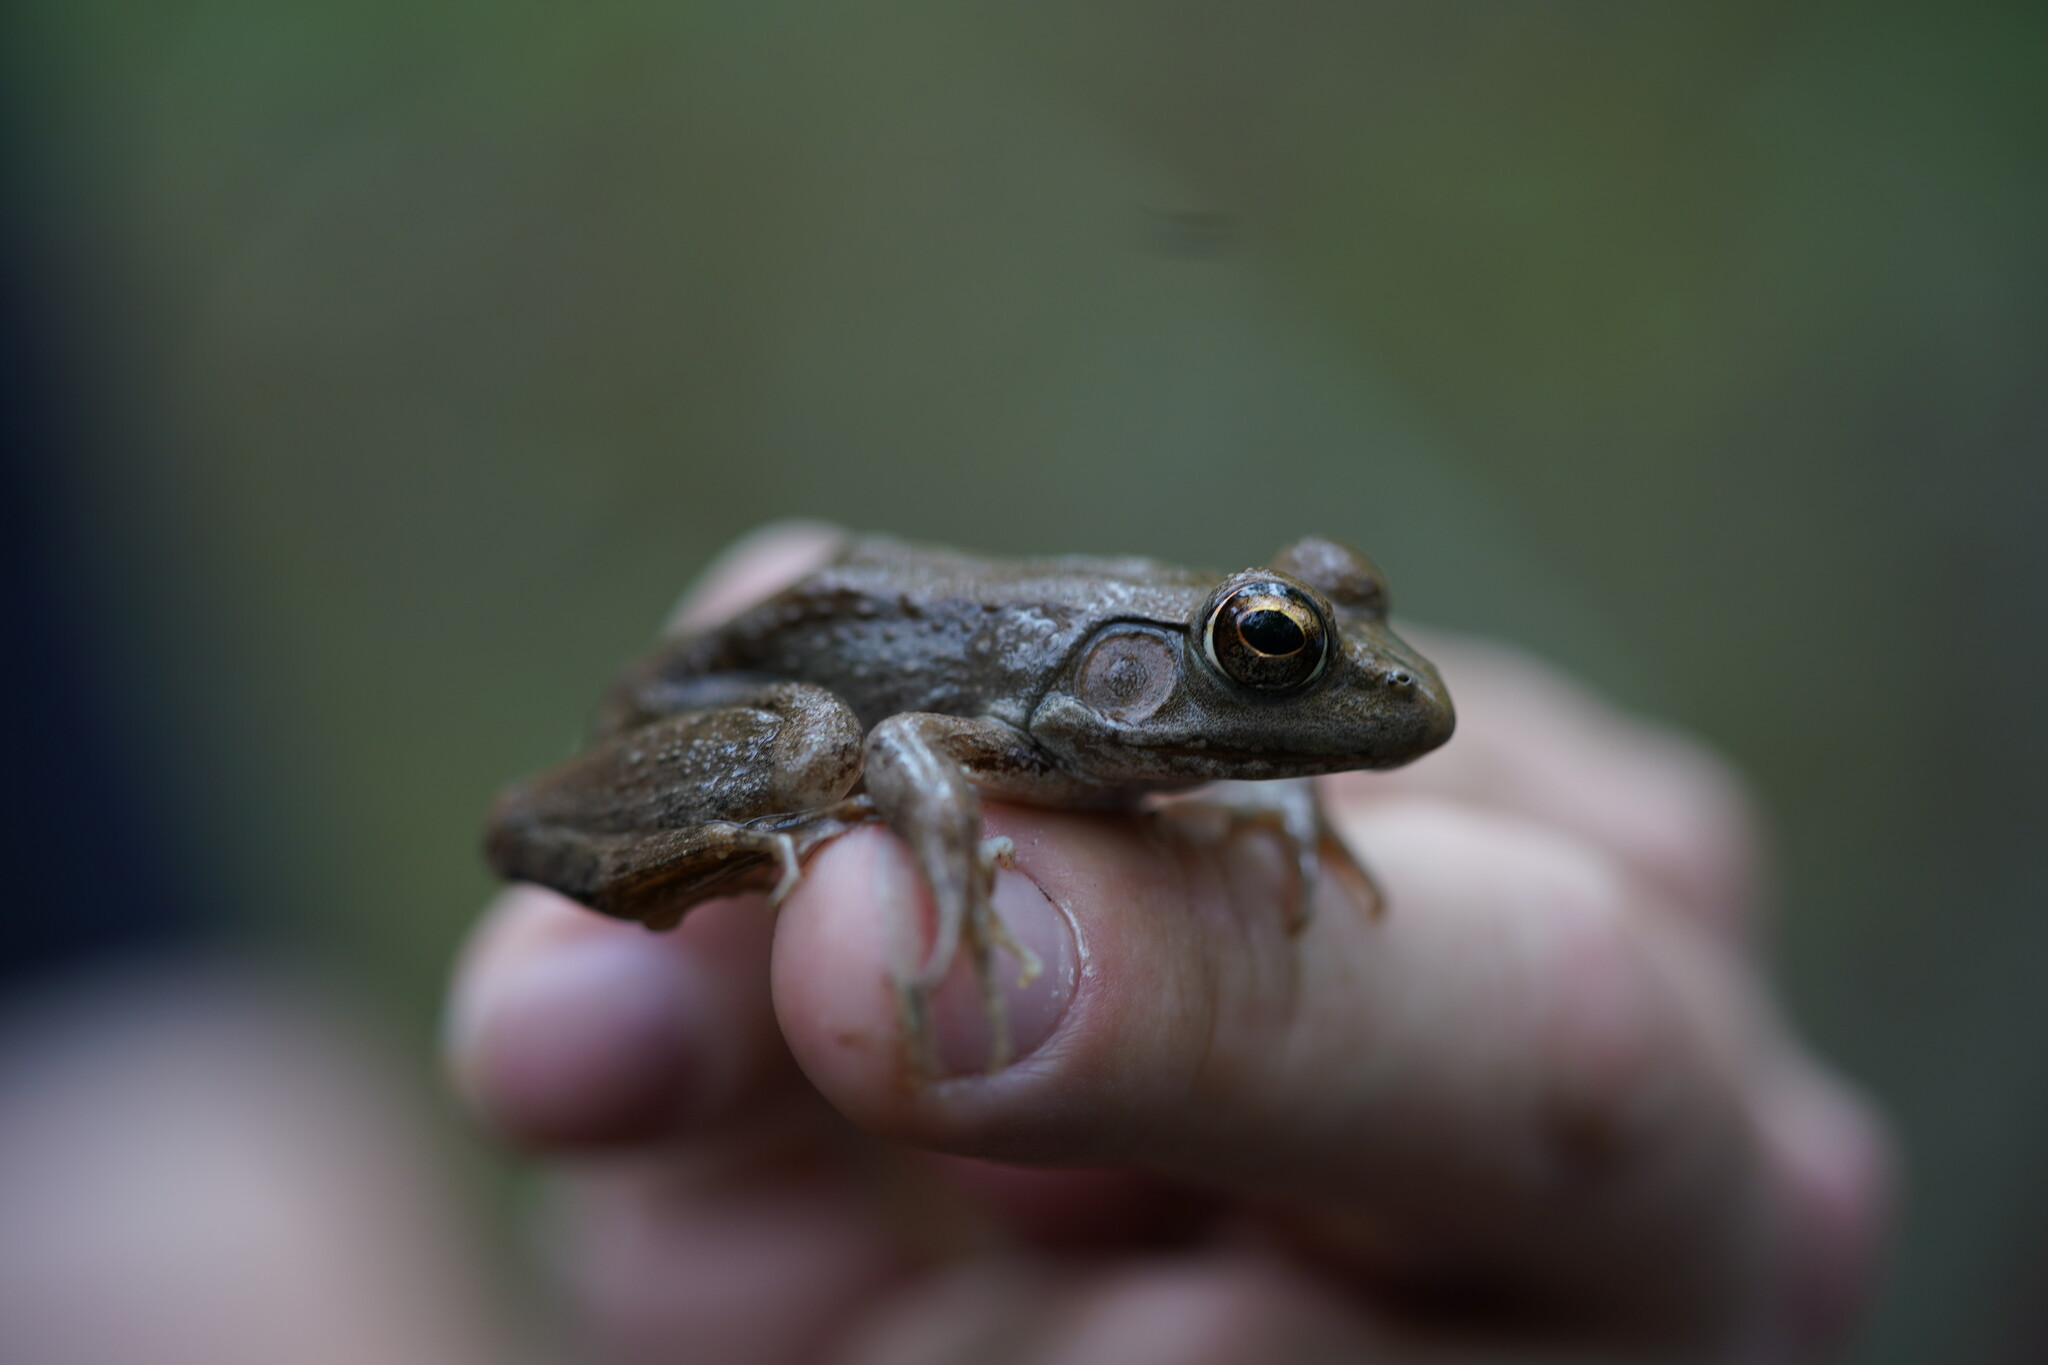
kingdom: Animalia
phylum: Chordata
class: Amphibia
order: Anura
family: Ranidae
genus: Lithobates
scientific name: Lithobates clamitans
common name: Green frog
